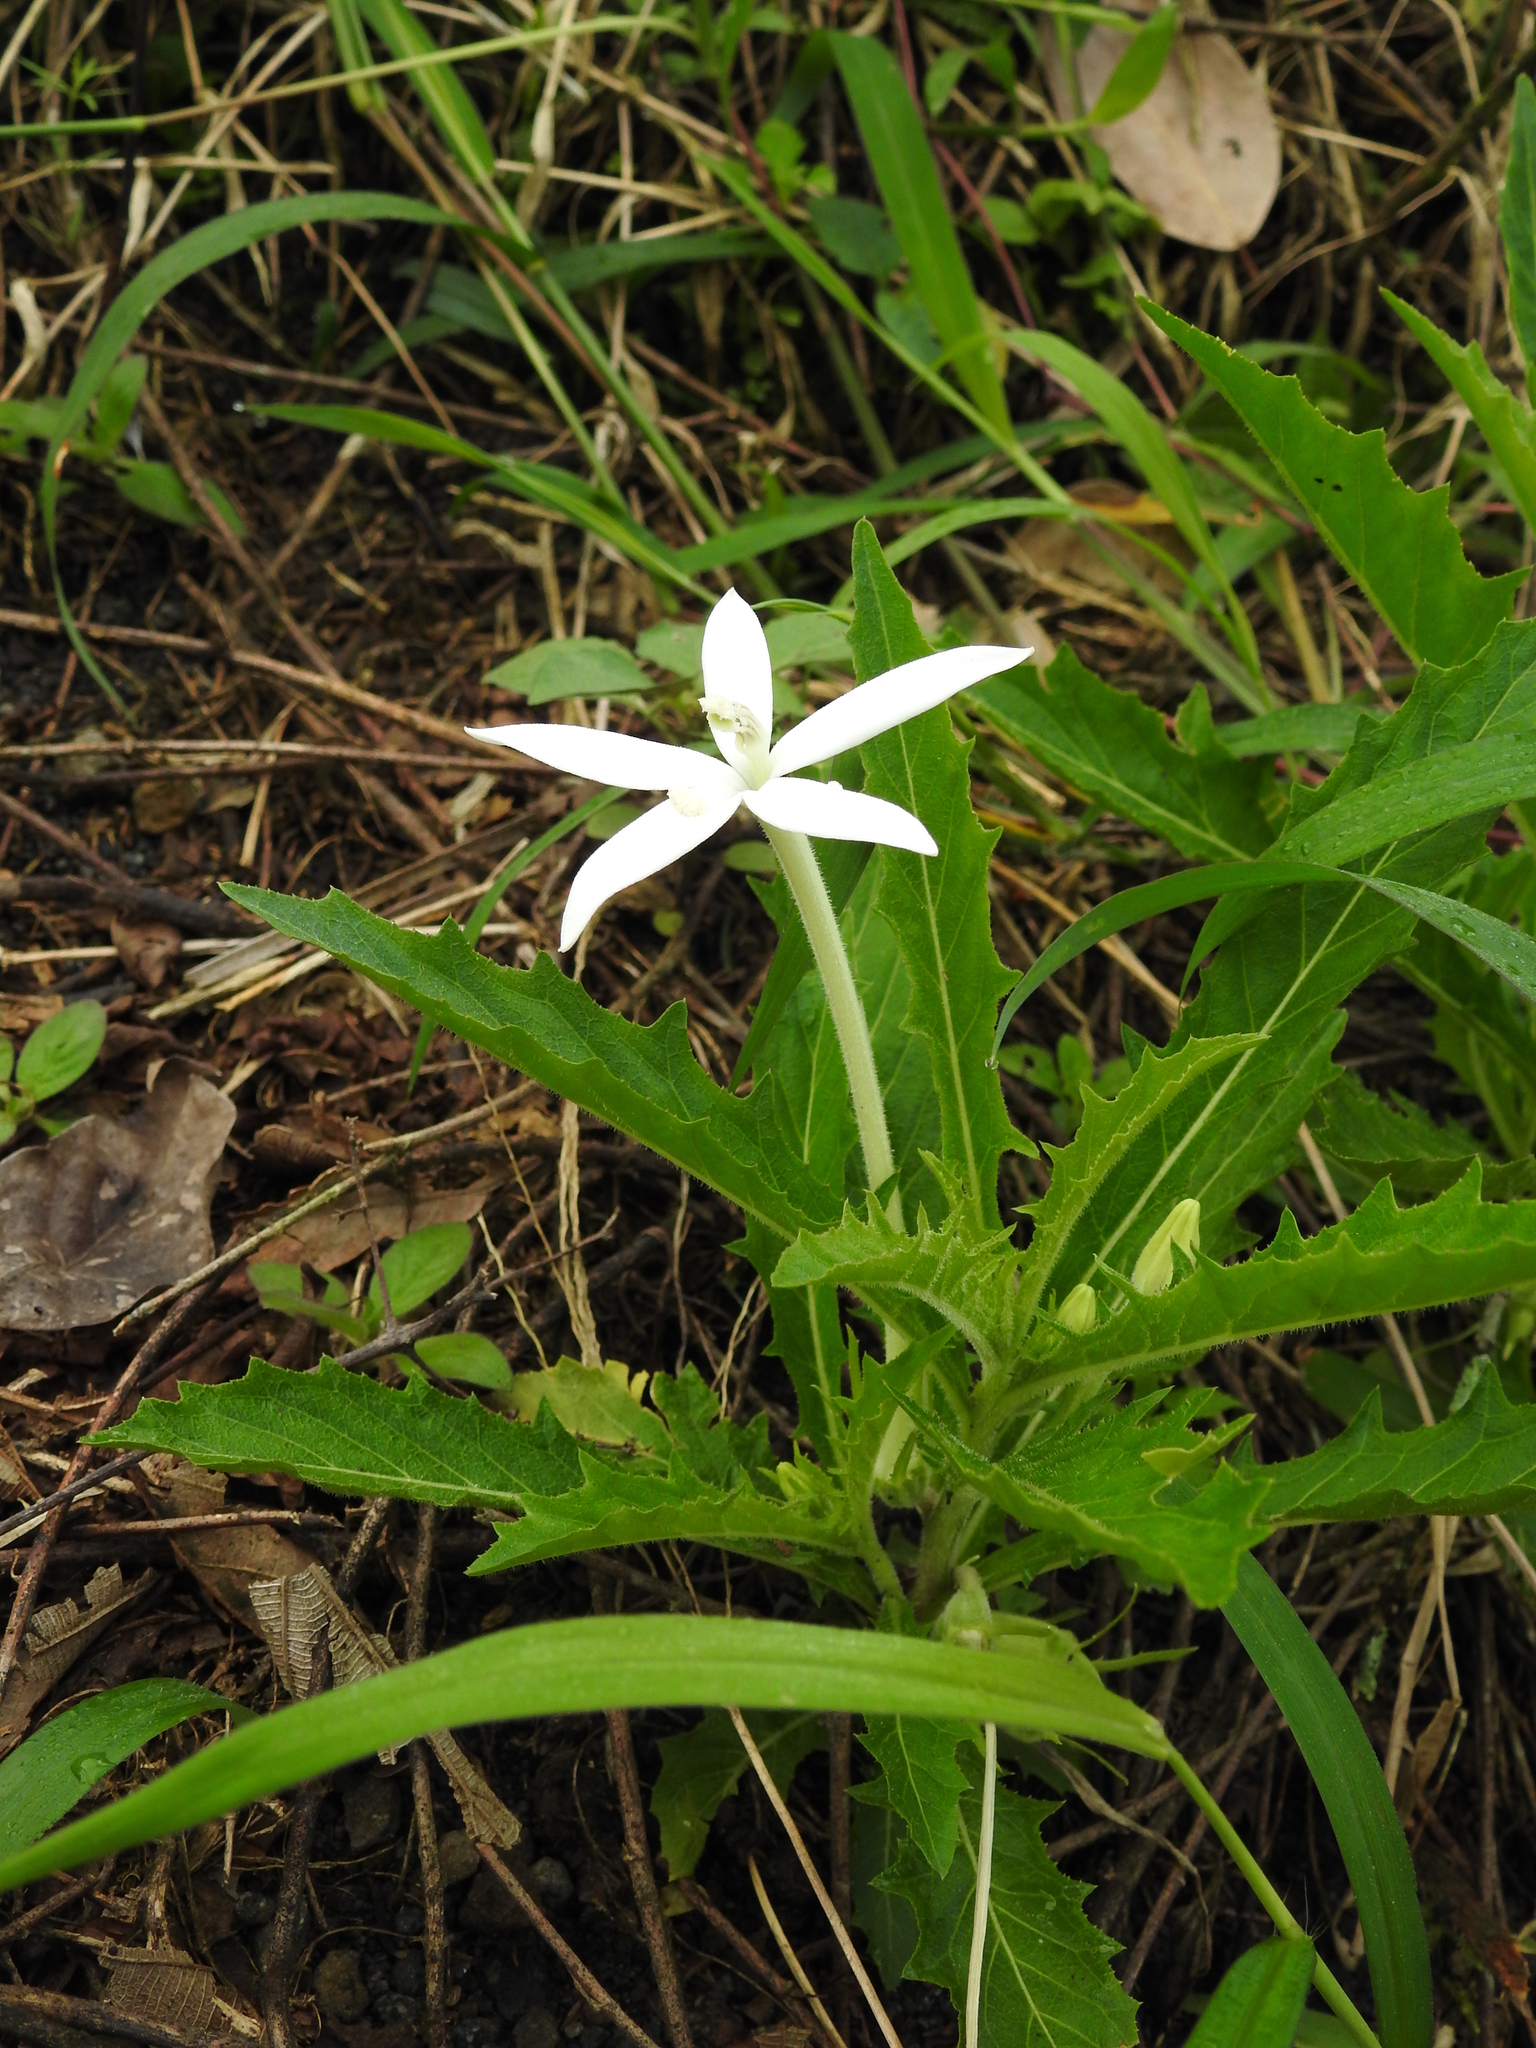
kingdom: Plantae
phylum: Tracheophyta
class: Magnoliopsida
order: Asterales
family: Campanulaceae
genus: Hippobroma
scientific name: Hippobroma longiflora
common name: Madamfate
